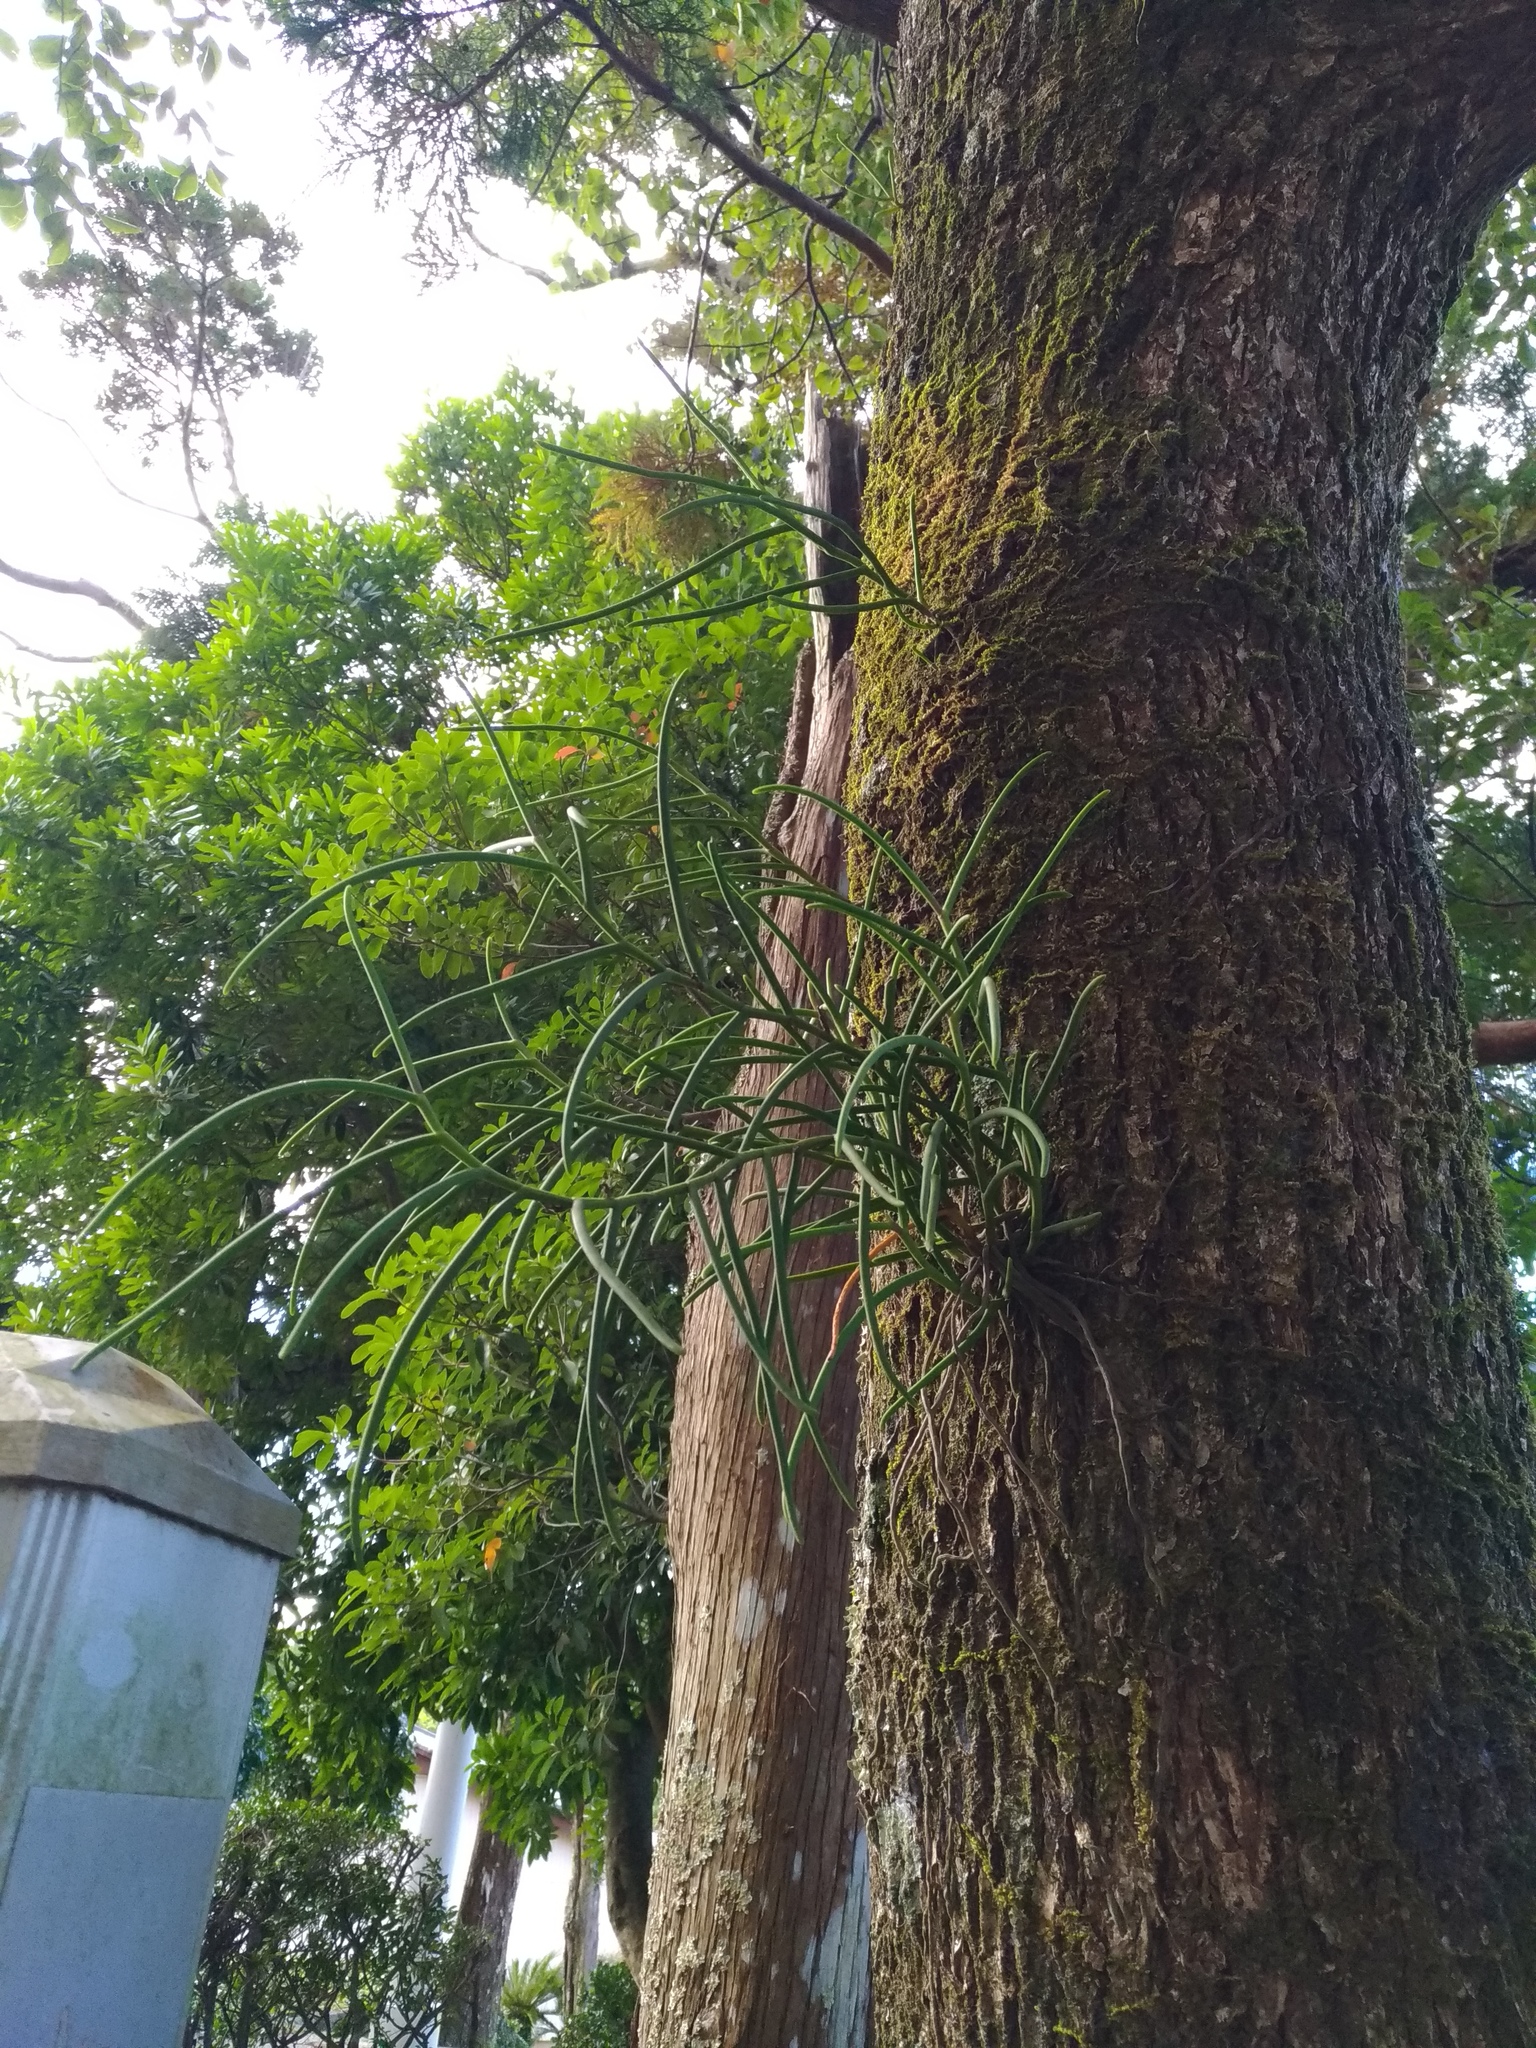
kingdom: Plantae
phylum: Tracheophyta
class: Liliopsida
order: Asparagales
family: Orchidaceae
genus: Luisia
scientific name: Luisia teres
